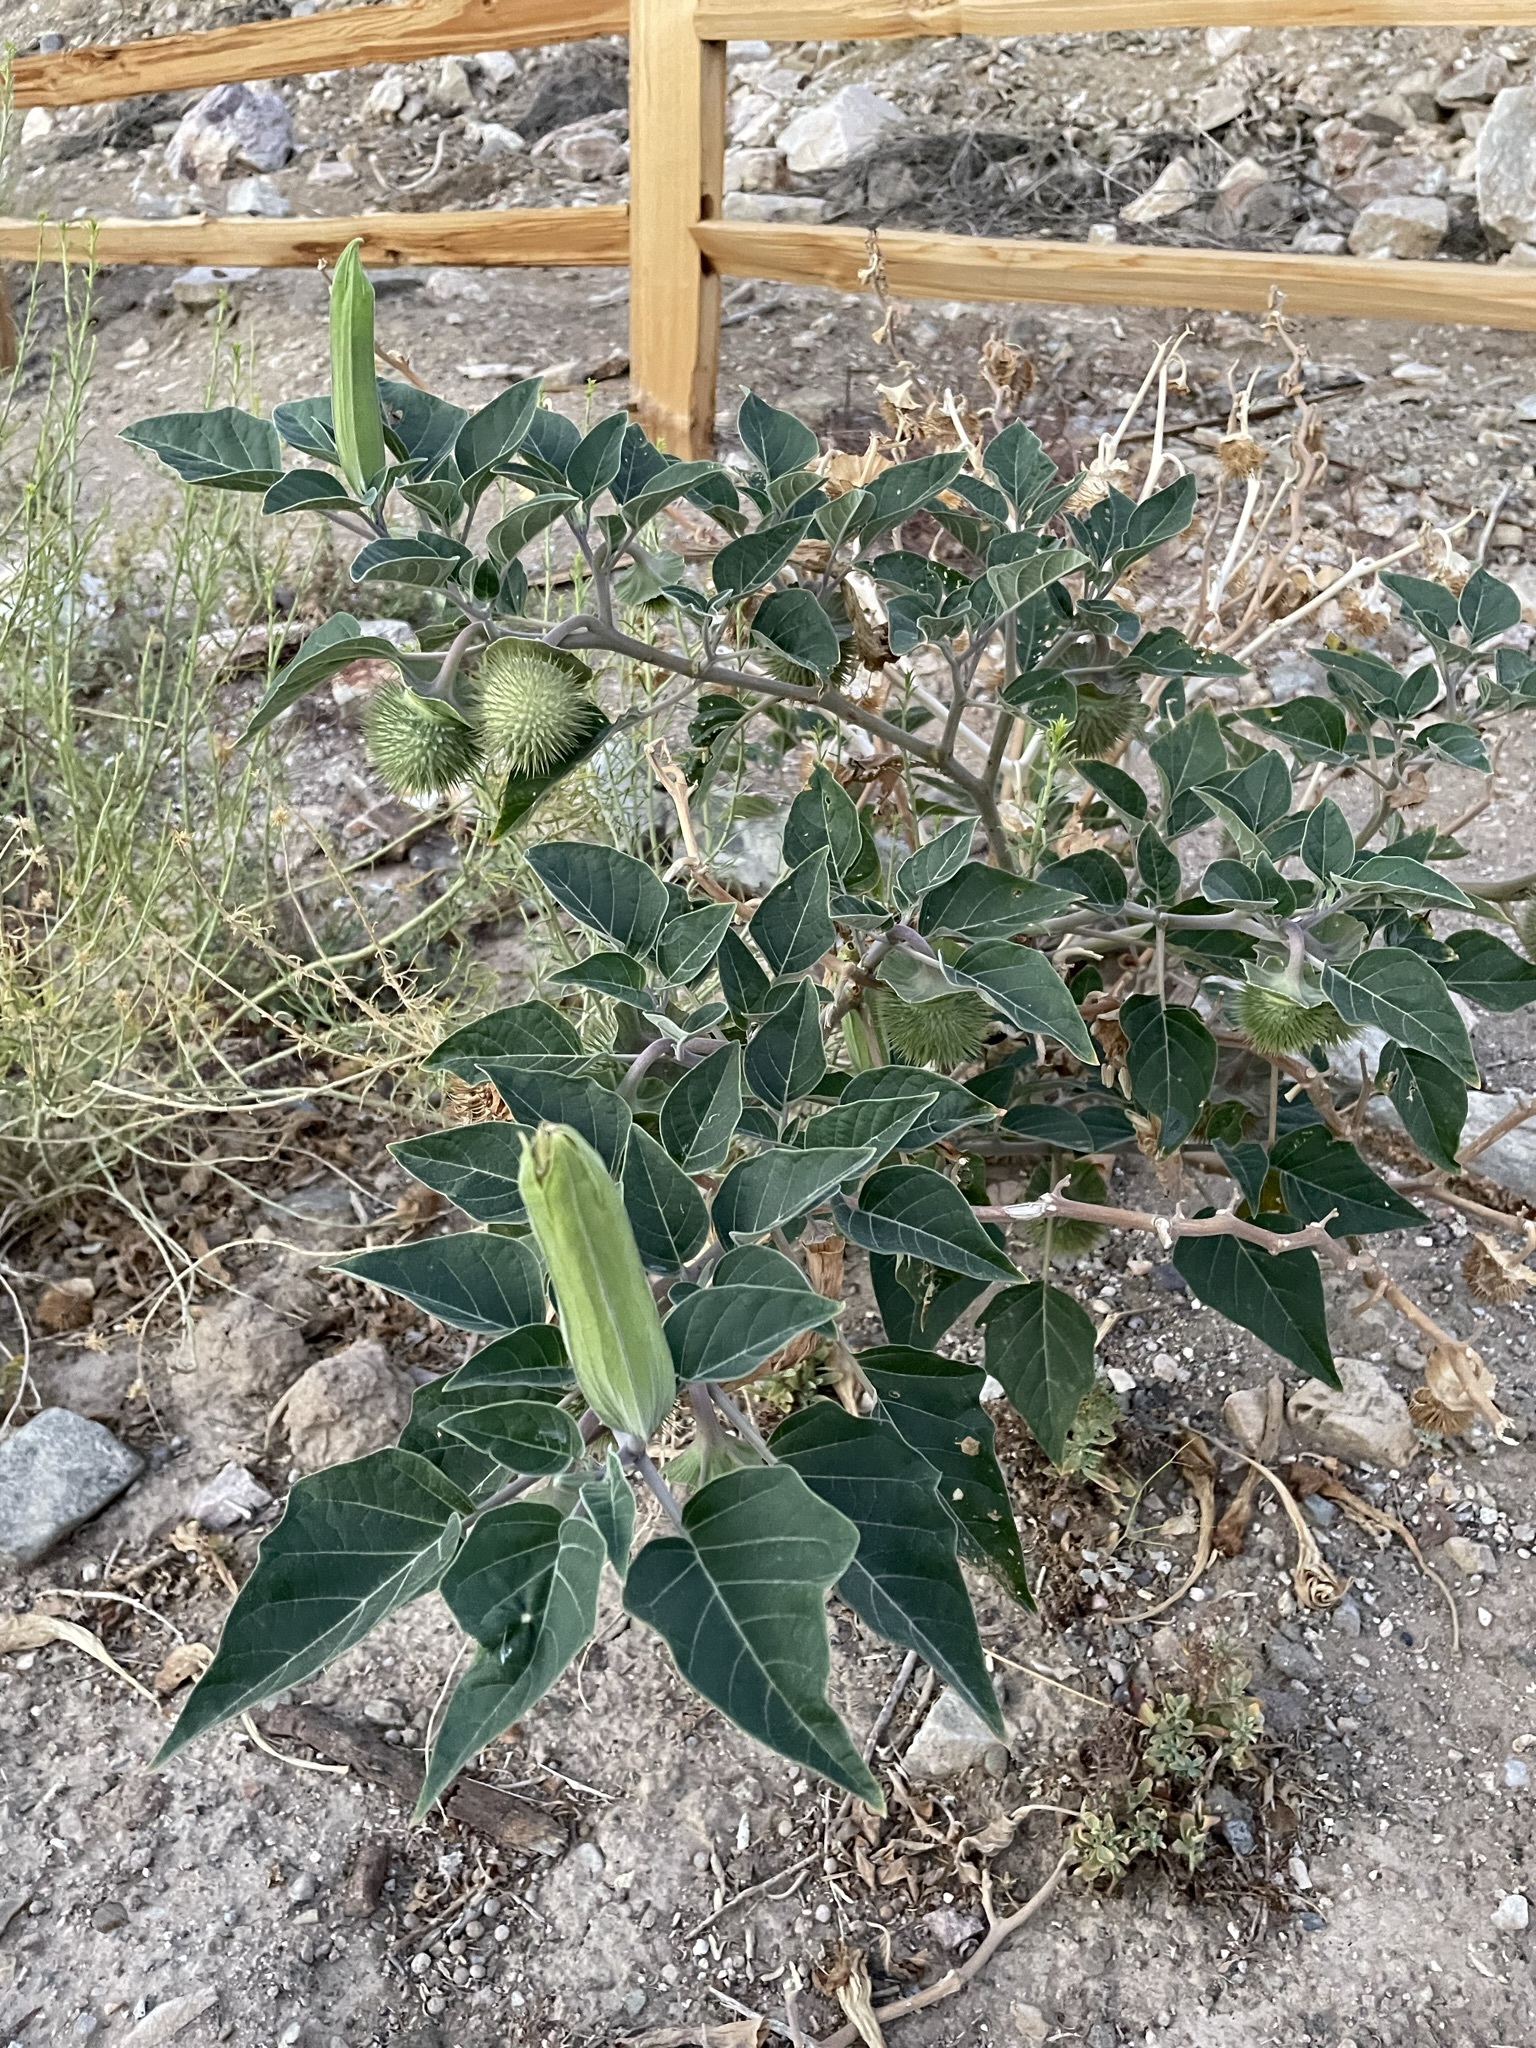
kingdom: Plantae
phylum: Tracheophyta
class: Magnoliopsida
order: Solanales
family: Solanaceae
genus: Datura
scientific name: Datura wrightii
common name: Sacred thorn-apple
